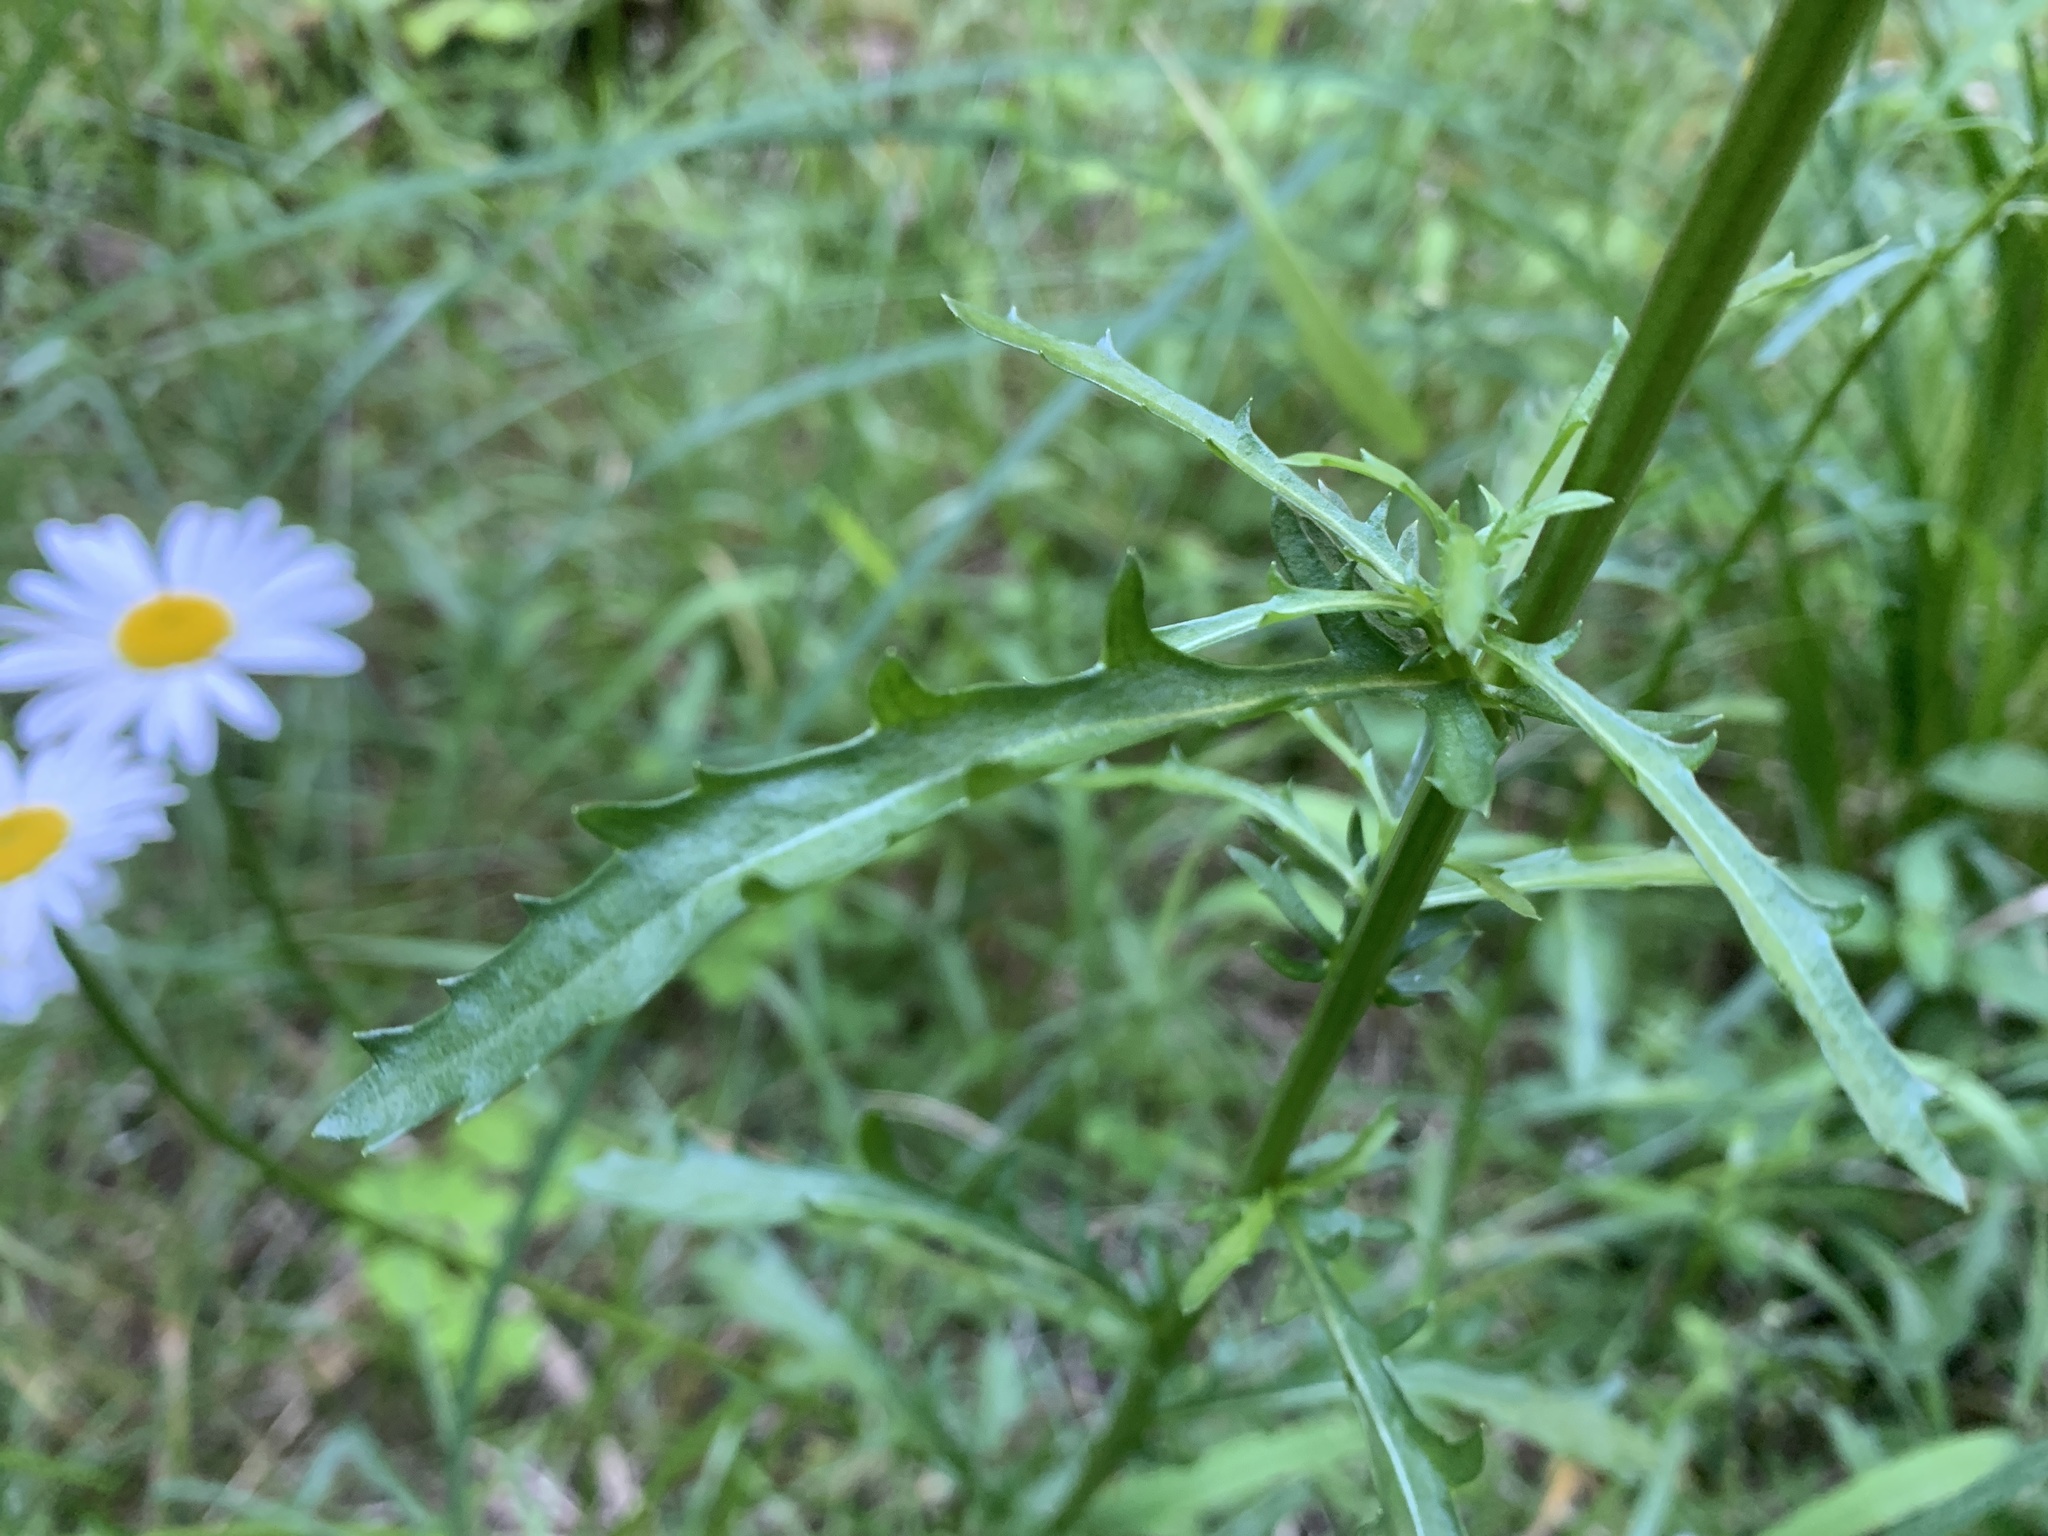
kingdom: Plantae
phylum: Tracheophyta
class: Magnoliopsida
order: Asterales
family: Asteraceae
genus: Leucanthemum
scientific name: Leucanthemum vulgare
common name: Oxeye daisy
